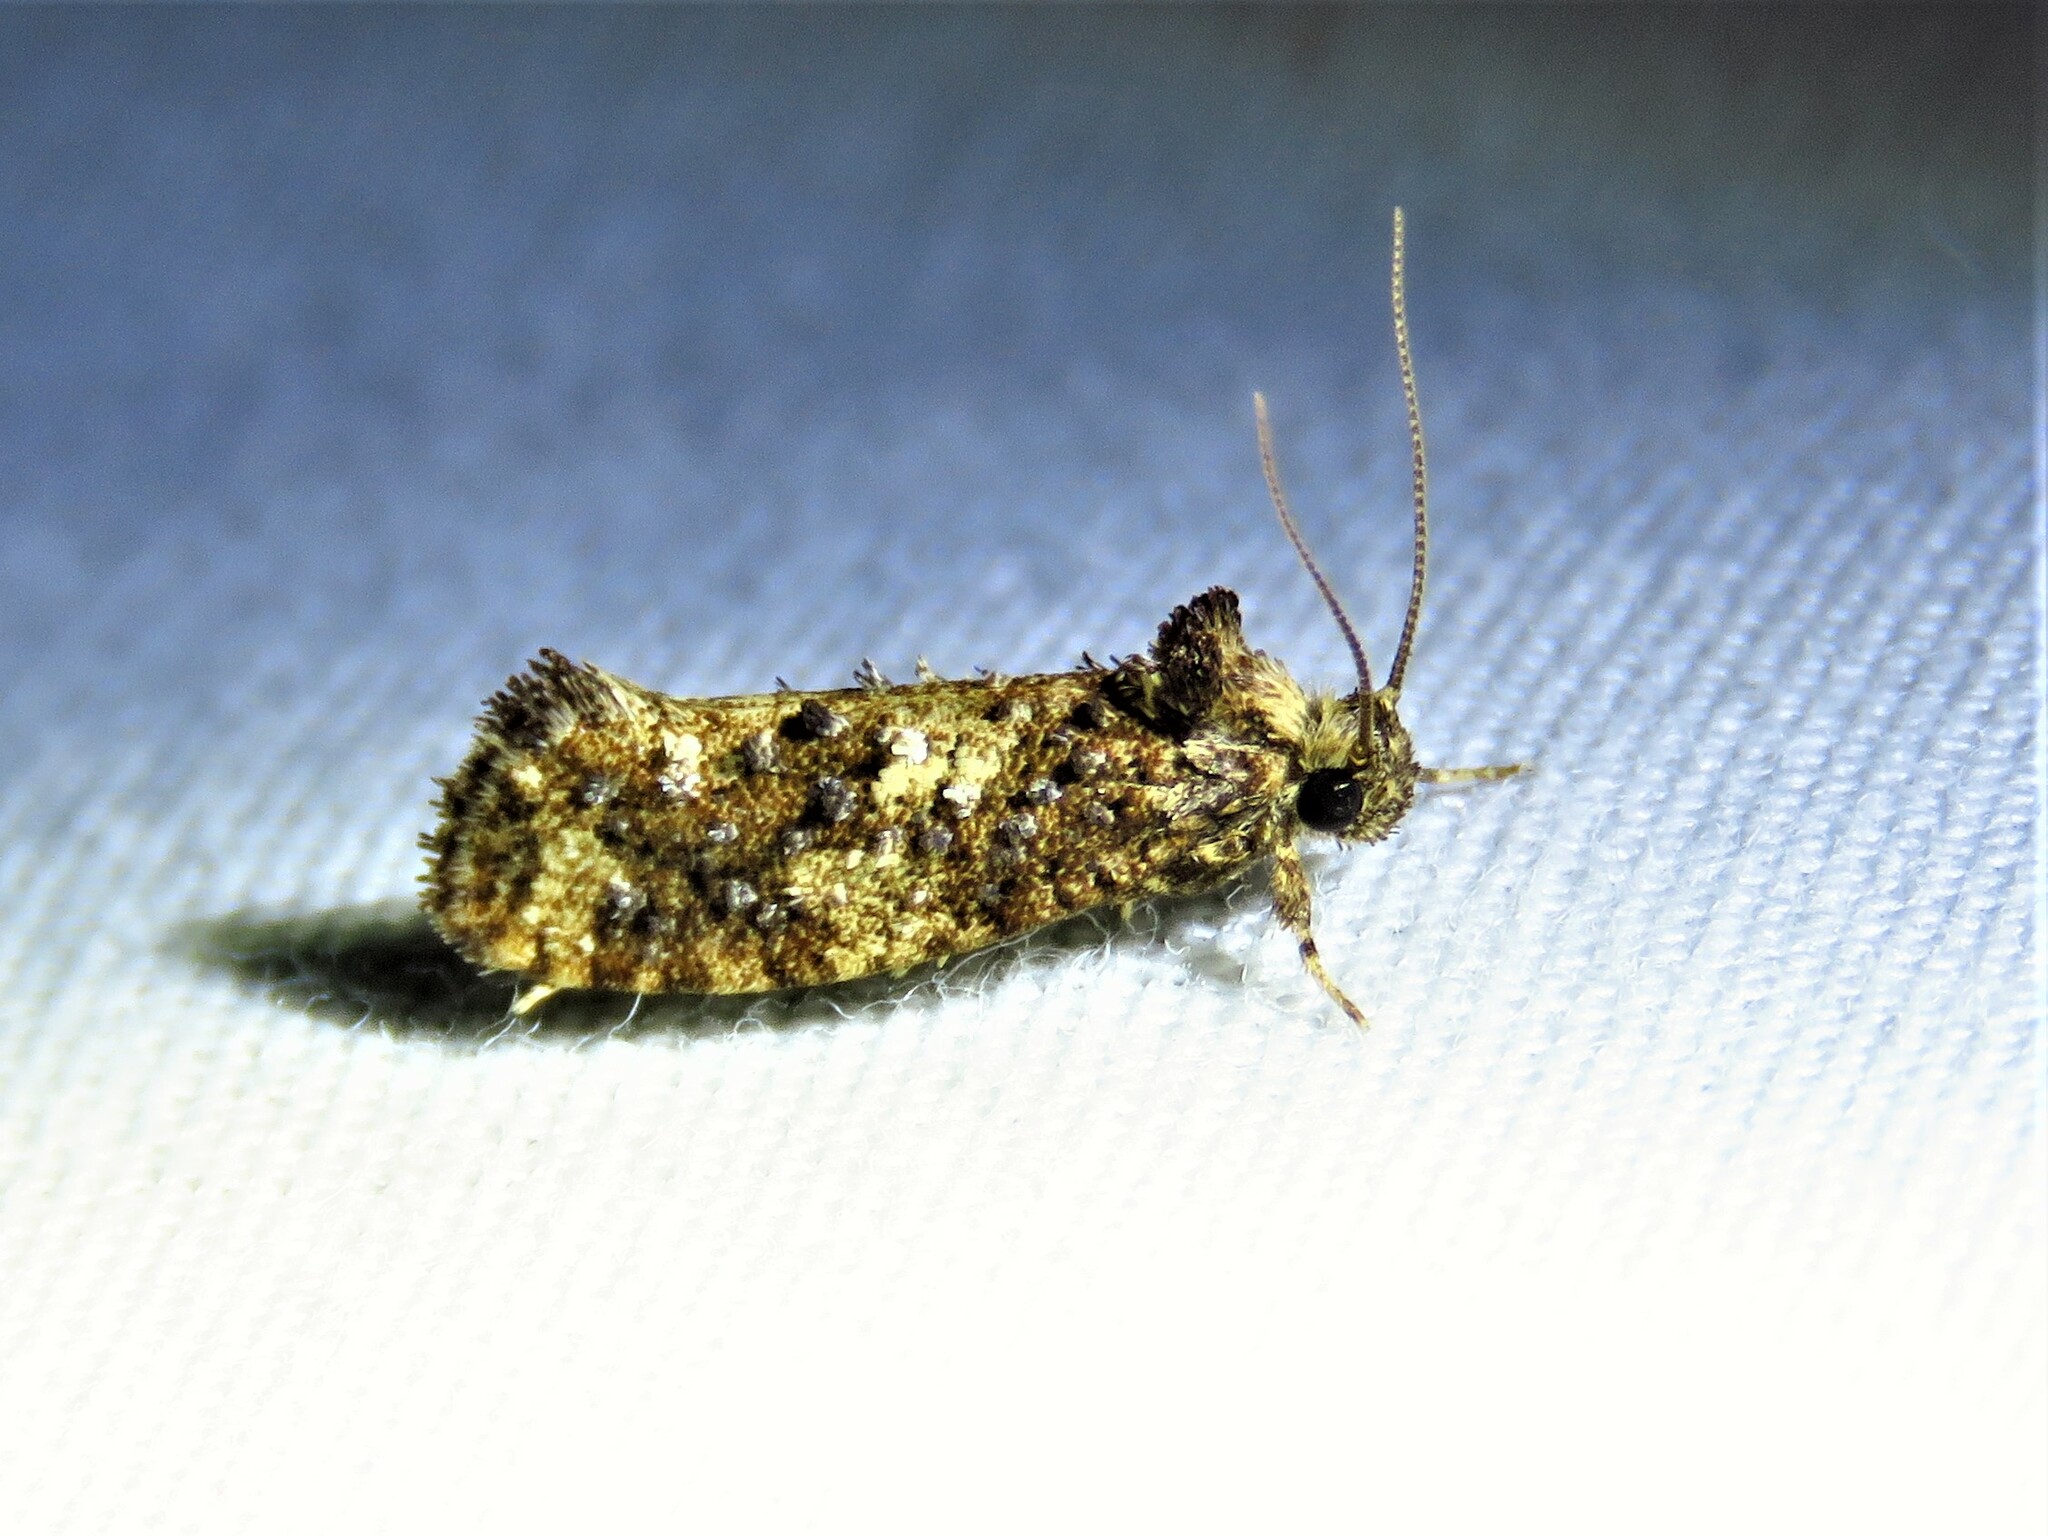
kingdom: Animalia
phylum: Arthropoda
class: Insecta
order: Lepidoptera
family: Tineidae
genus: Acrolophus
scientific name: Acrolophus cressoni
